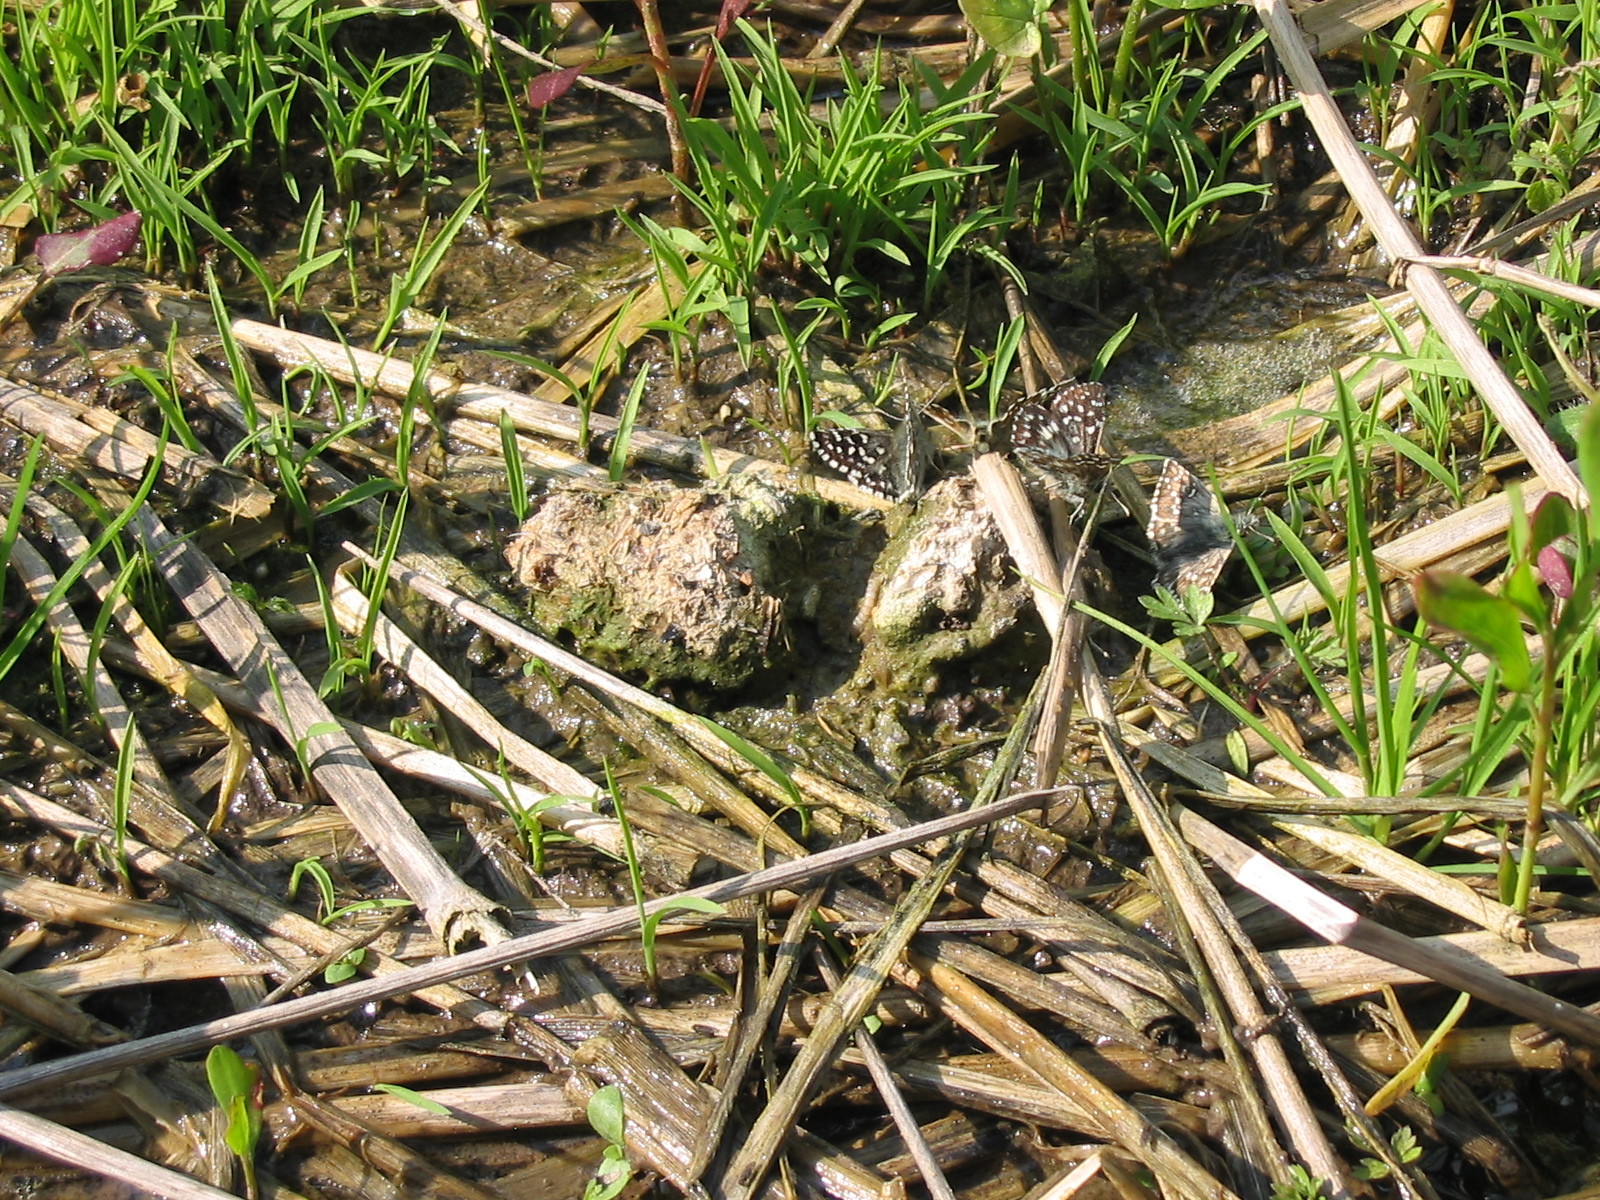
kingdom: Animalia
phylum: Arthropoda
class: Insecta
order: Lepidoptera
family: Hesperiidae
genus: Pyrgus
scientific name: Pyrgus malvae
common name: Grizzled skipper
